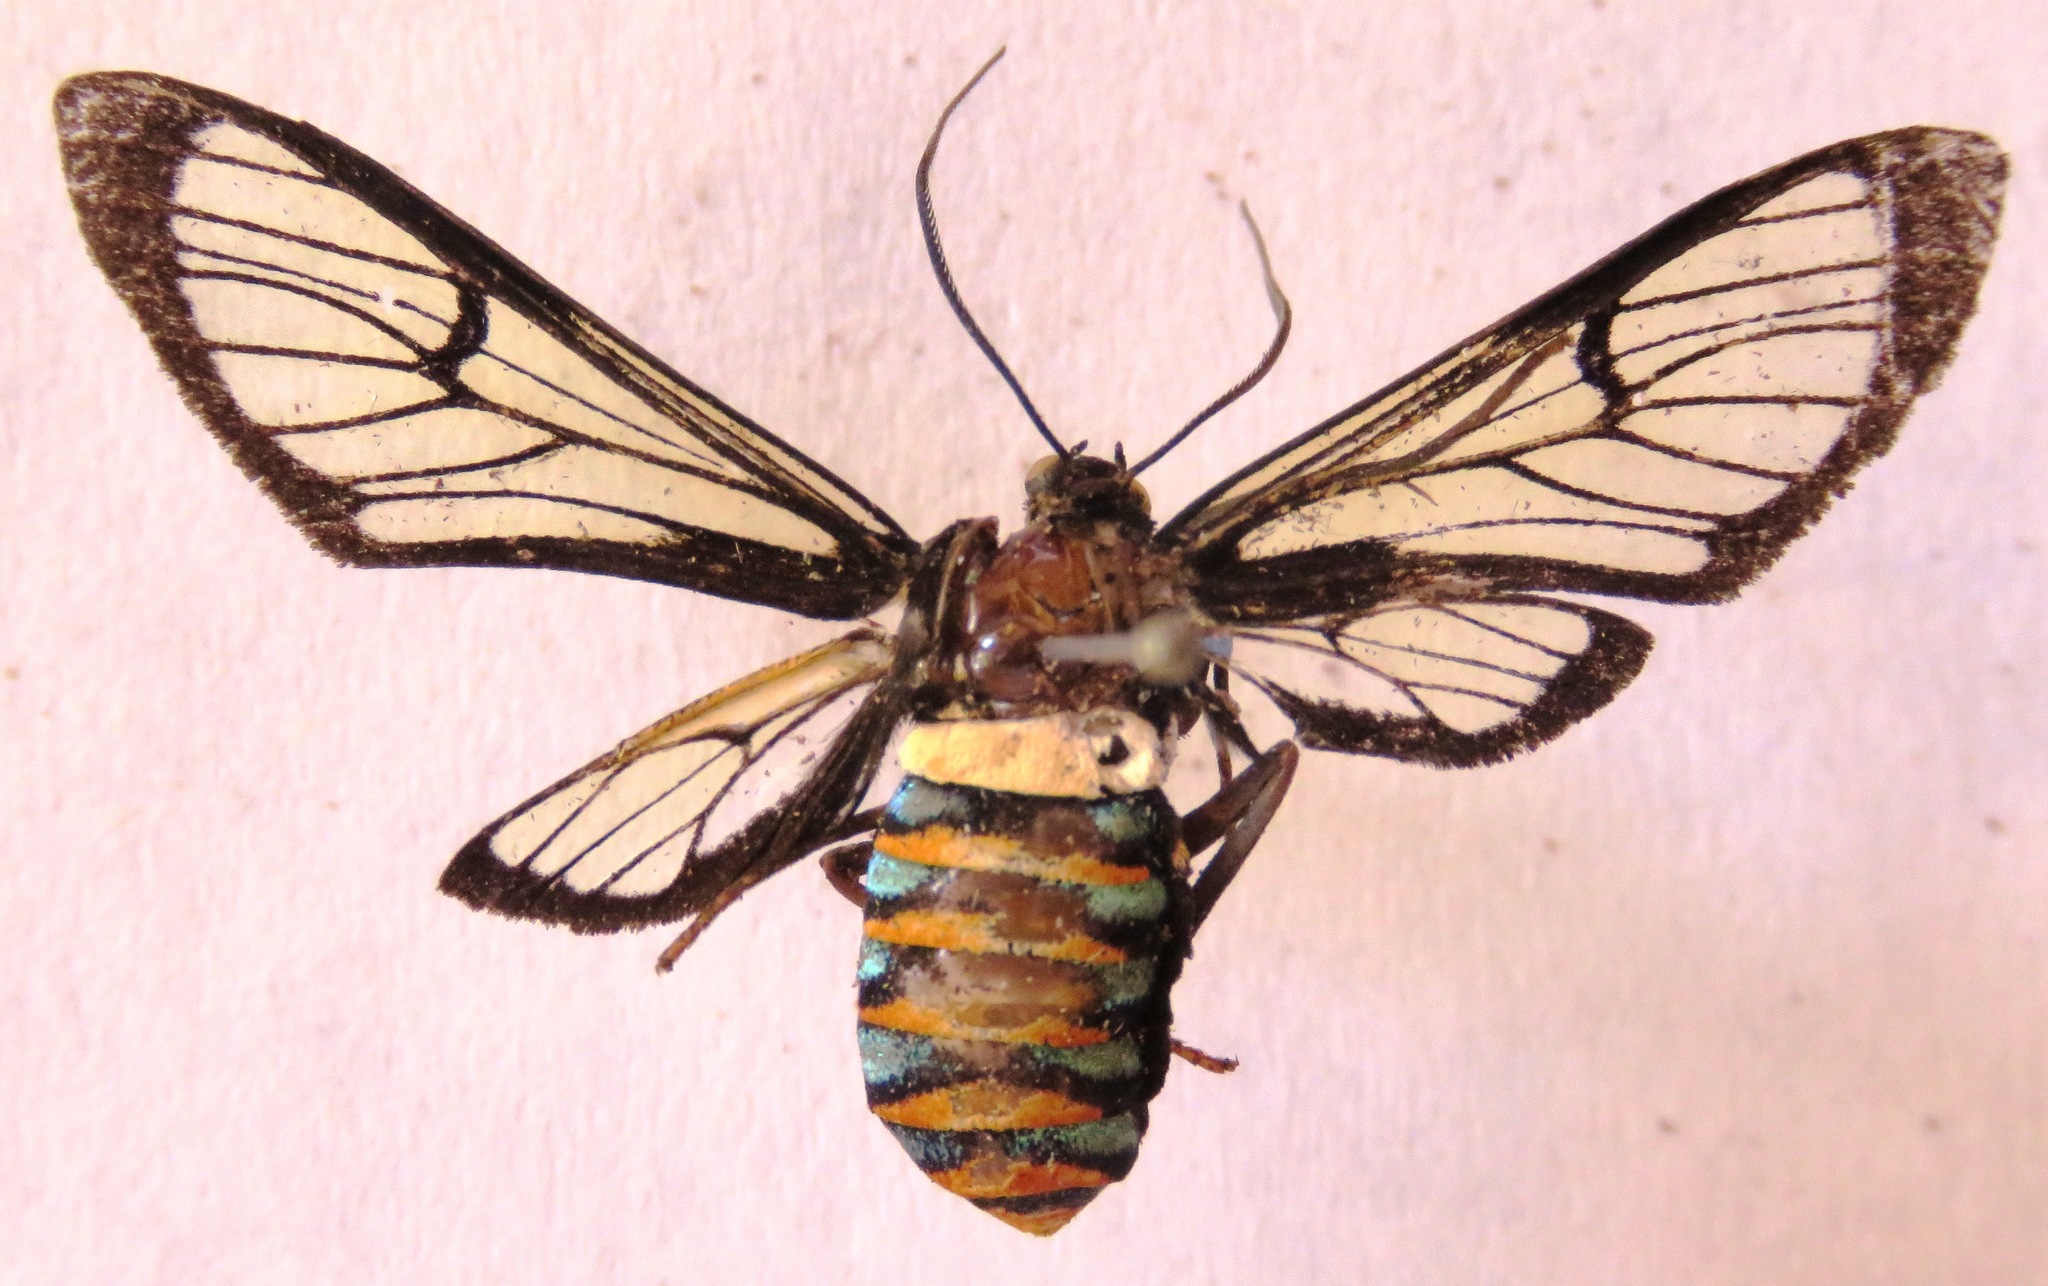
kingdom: Animalia
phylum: Arthropoda
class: Insecta
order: Lepidoptera
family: Erebidae
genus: Autochloris
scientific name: Autochloris jansonis
